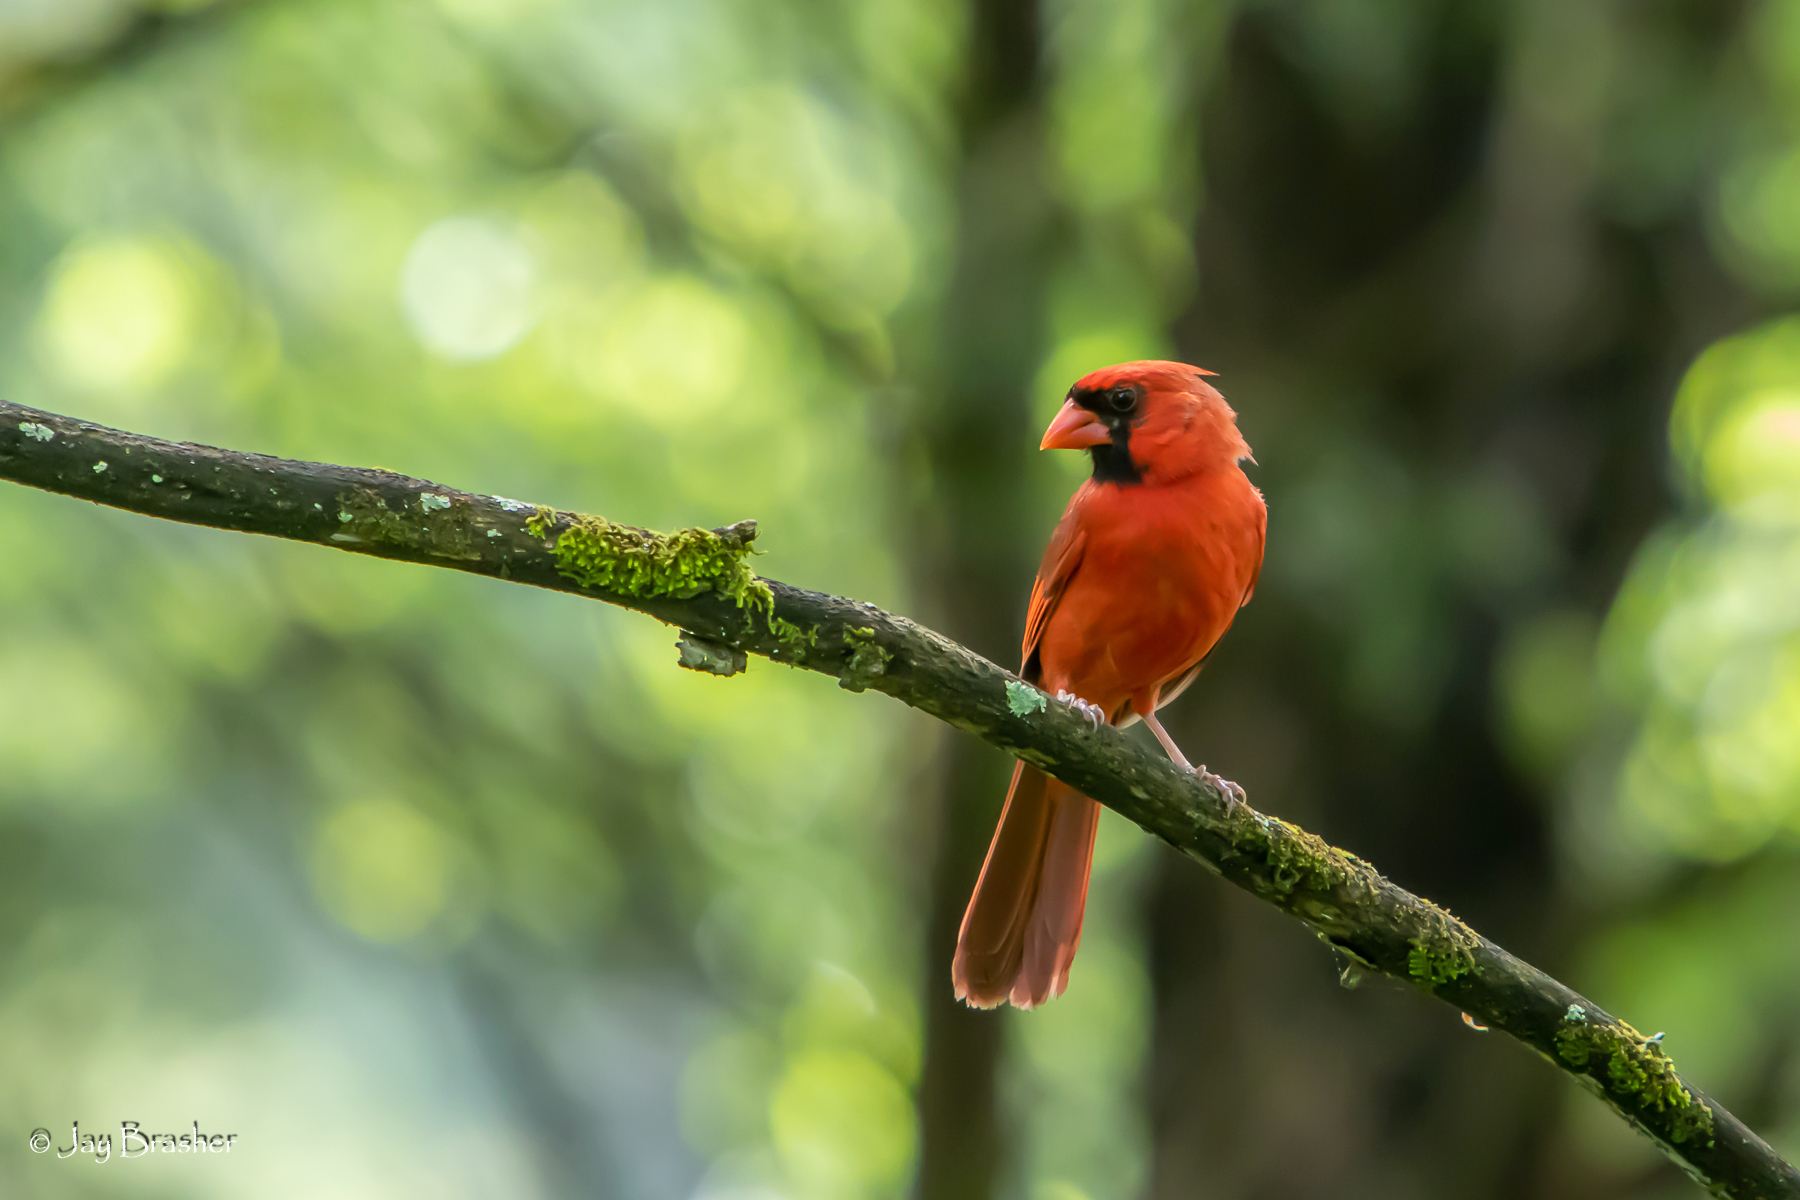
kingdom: Animalia
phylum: Chordata
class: Aves
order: Passeriformes
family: Cardinalidae
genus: Cardinalis
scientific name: Cardinalis cardinalis
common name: Northern cardinal
